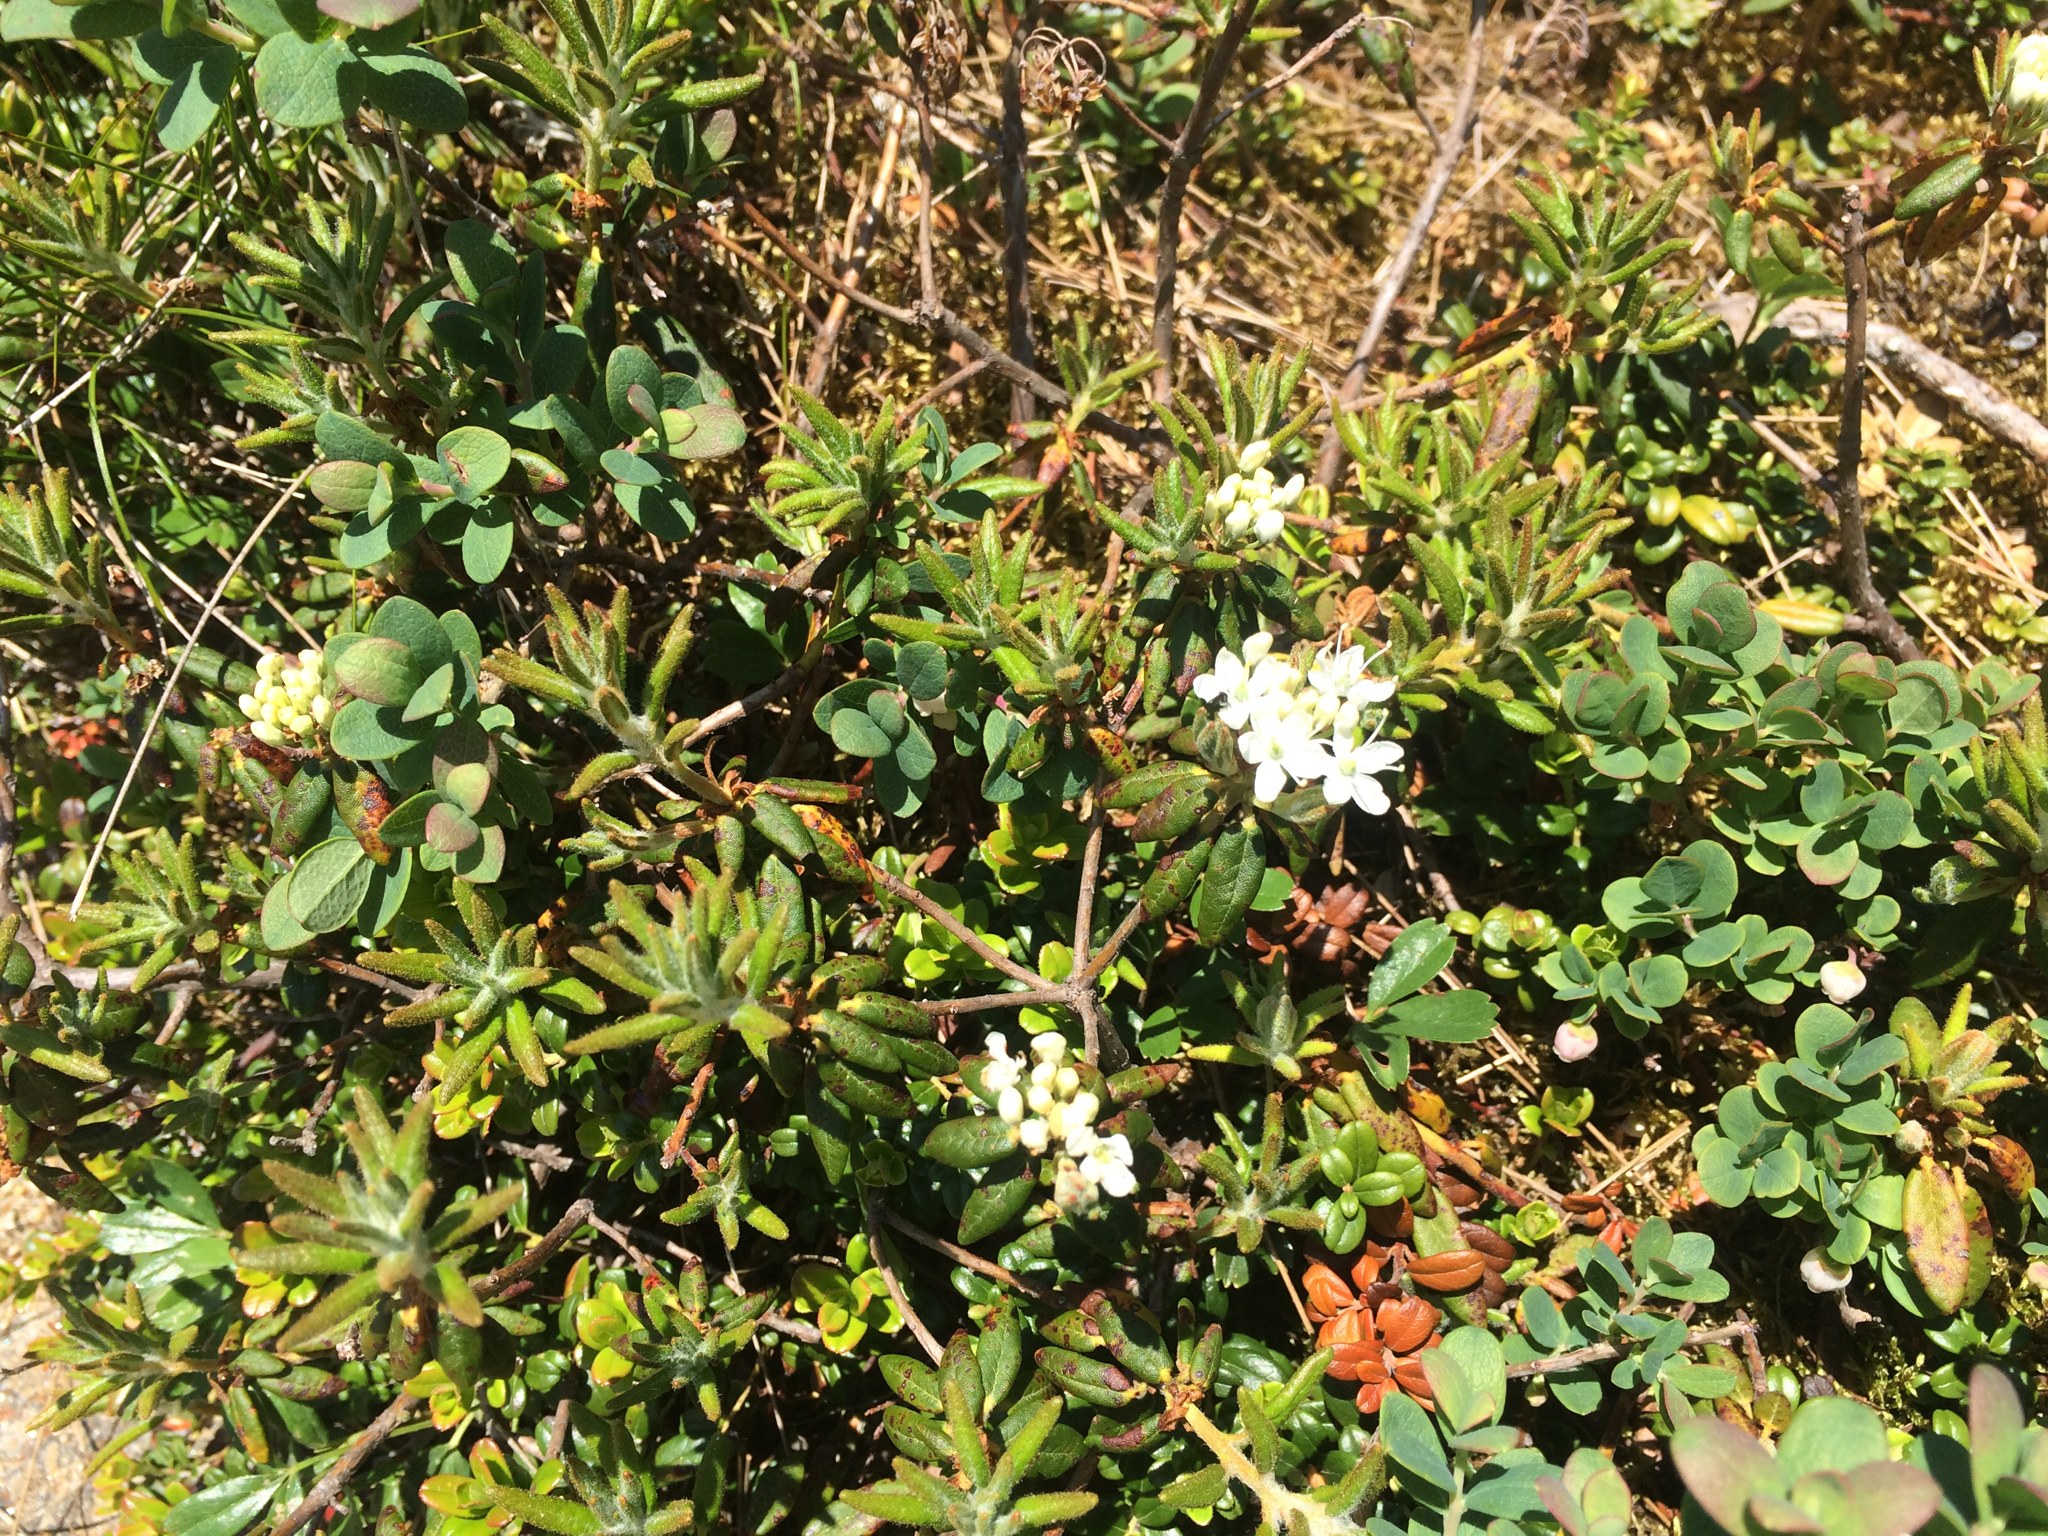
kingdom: Plantae
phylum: Tracheophyta
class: Magnoliopsida
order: Ericales
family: Ericaceae
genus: Rhododendron
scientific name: Rhododendron groenlandicum
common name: Bog labrador tea
